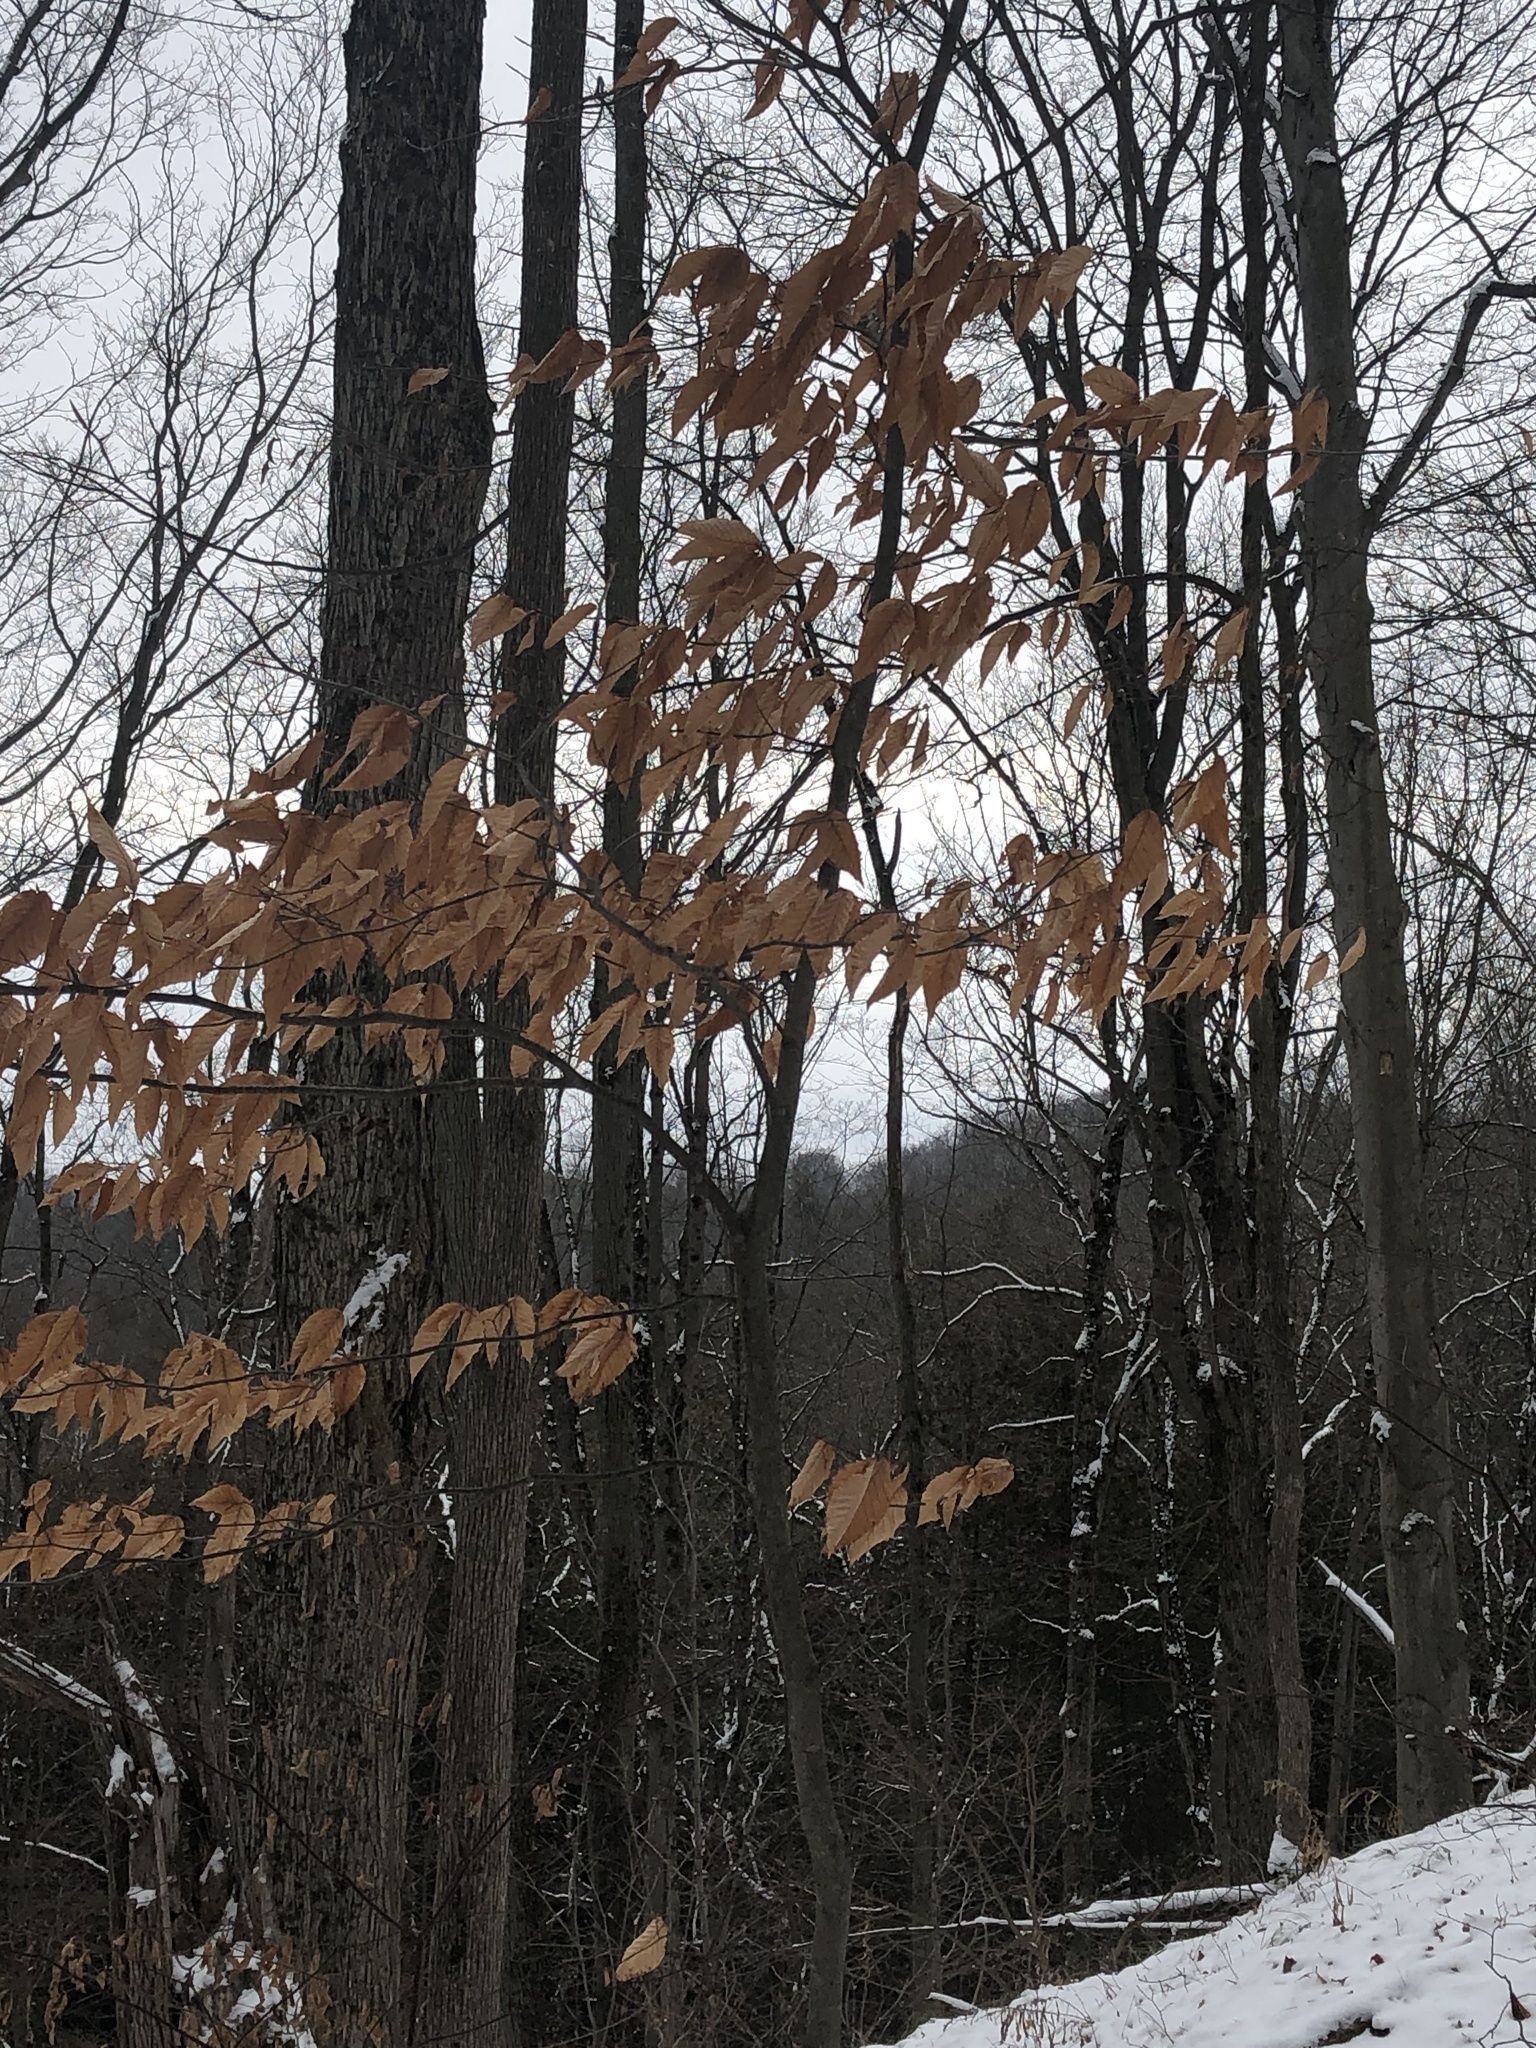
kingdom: Plantae
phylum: Tracheophyta
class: Magnoliopsida
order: Fagales
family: Fagaceae
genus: Fagus
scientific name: Fagus grandifolia
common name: American beech
